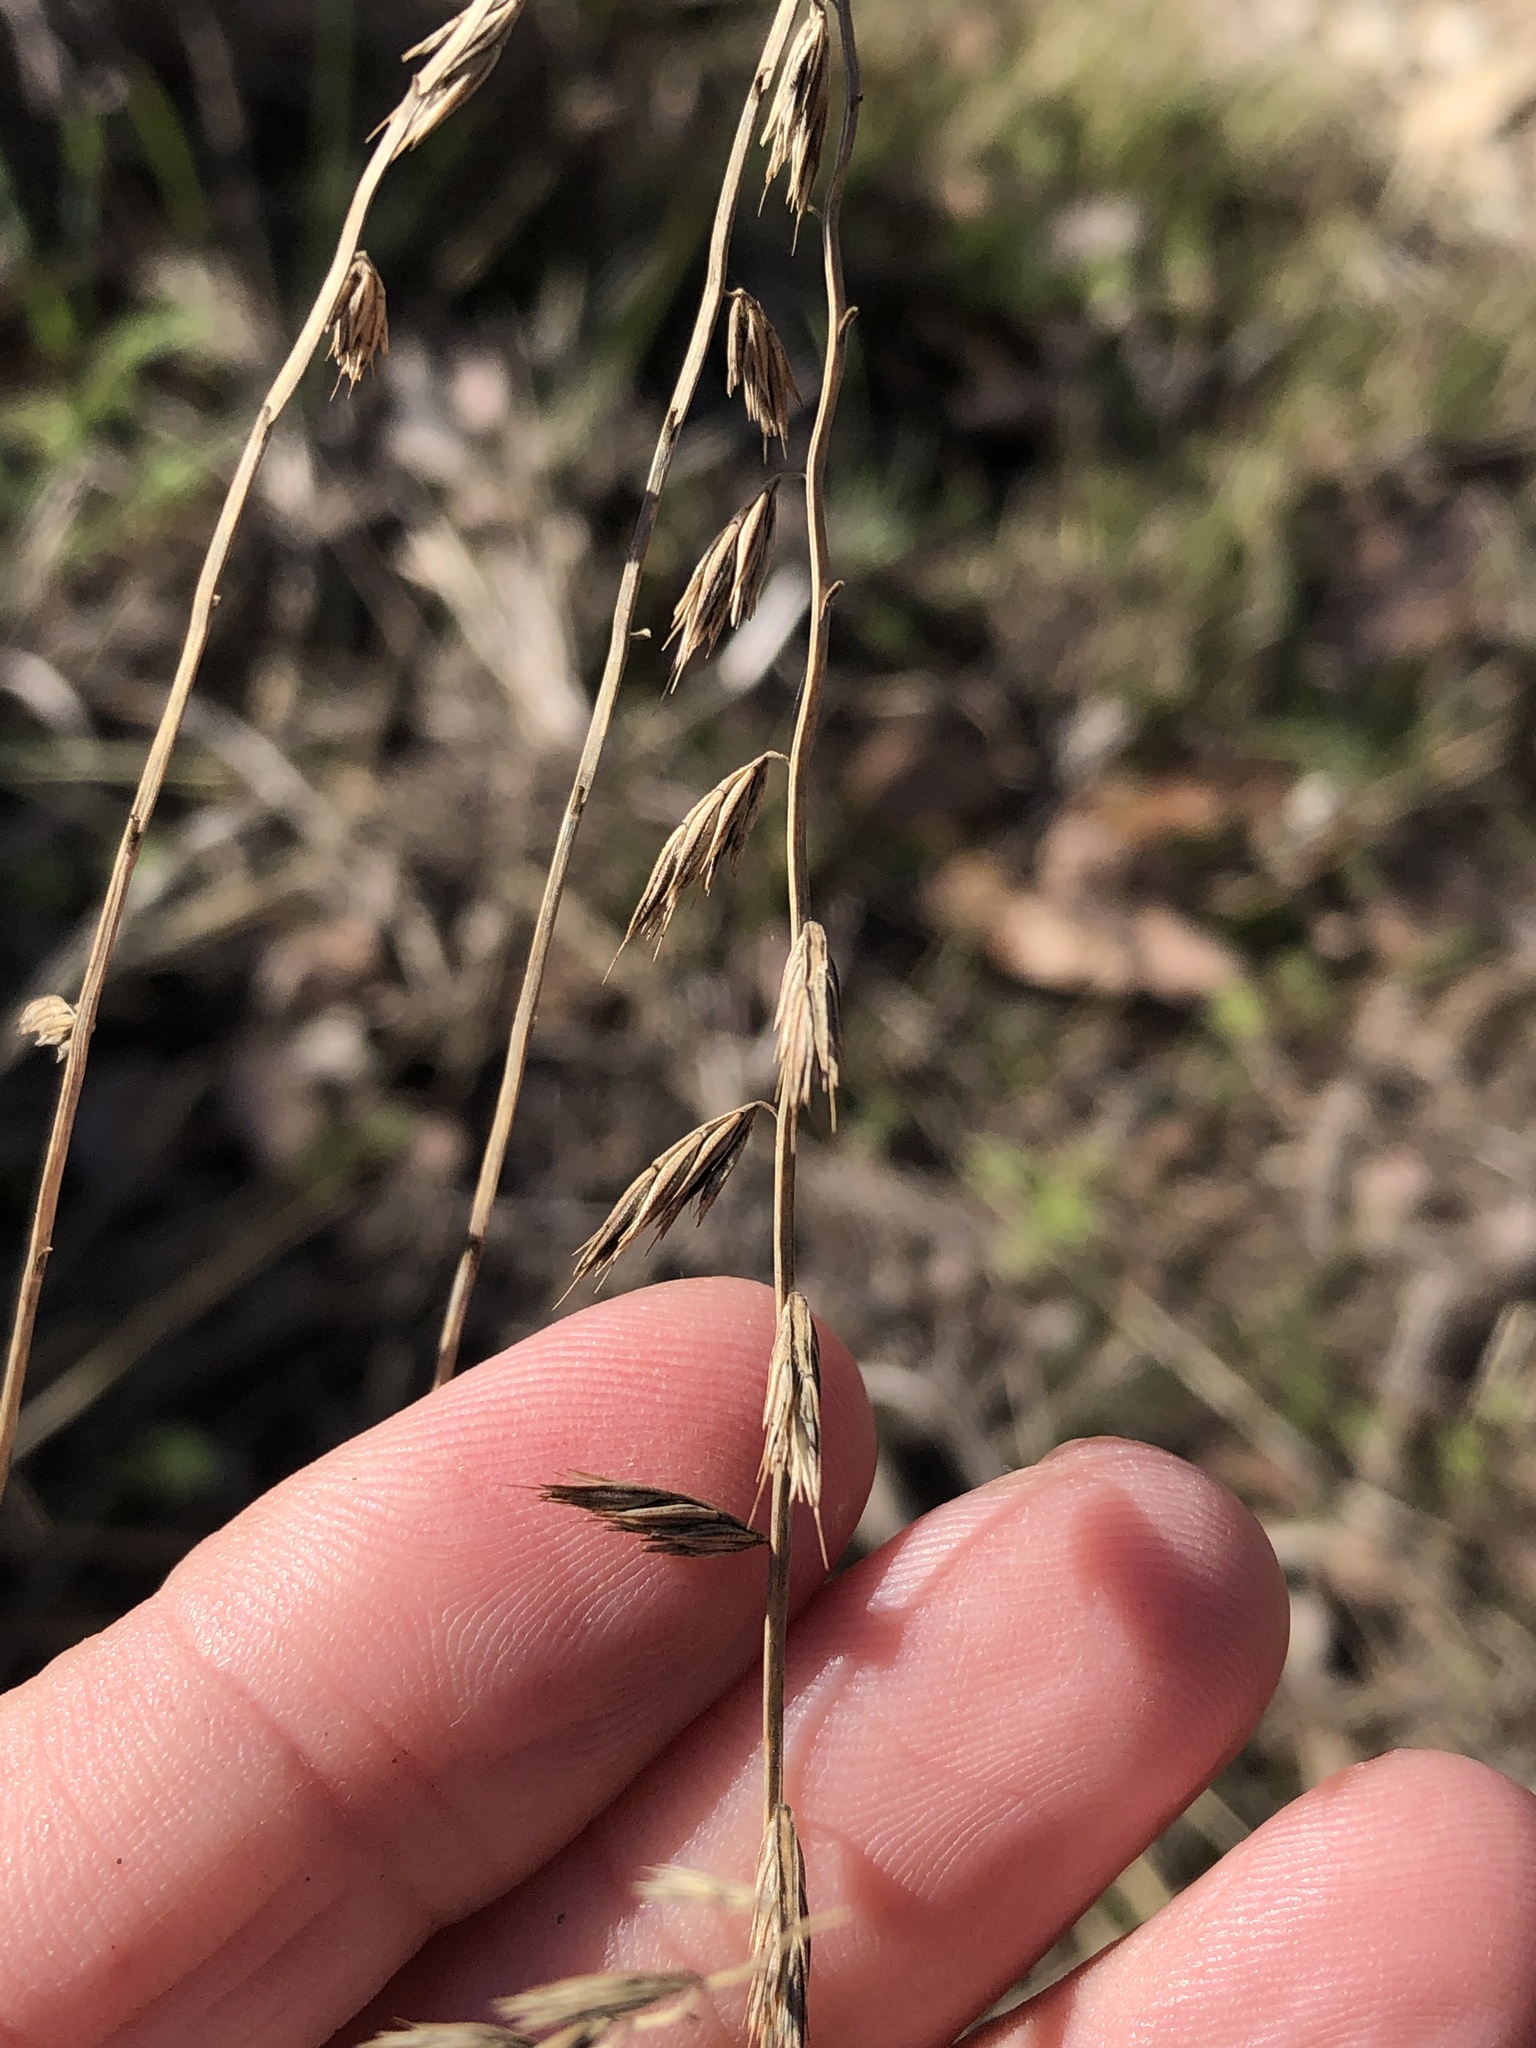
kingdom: Plantae
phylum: Tracheophyta
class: Liliopsida
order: Poales
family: Poaceae
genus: Bouteloua
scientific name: Bouteloua curtipendula
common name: Side-oats grama
